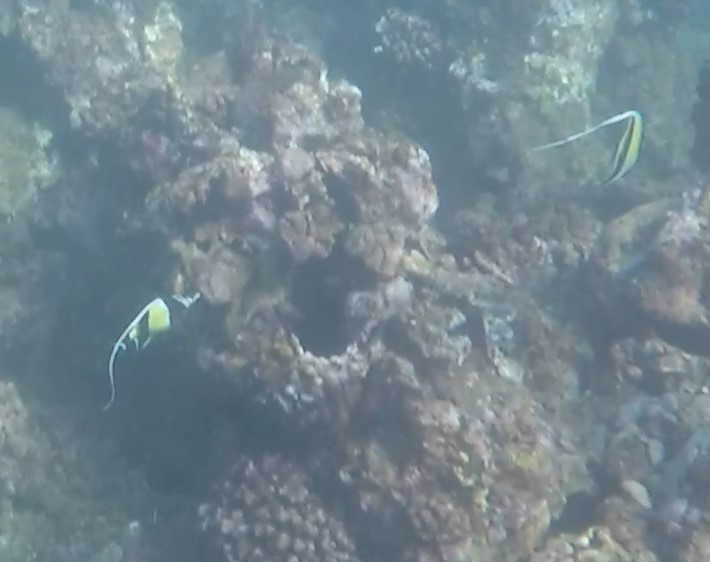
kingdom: Animalia
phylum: Chordata
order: Perciformes
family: Zanclidae
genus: Zanclus
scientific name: Zanclus cornutus
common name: Moorish idol
